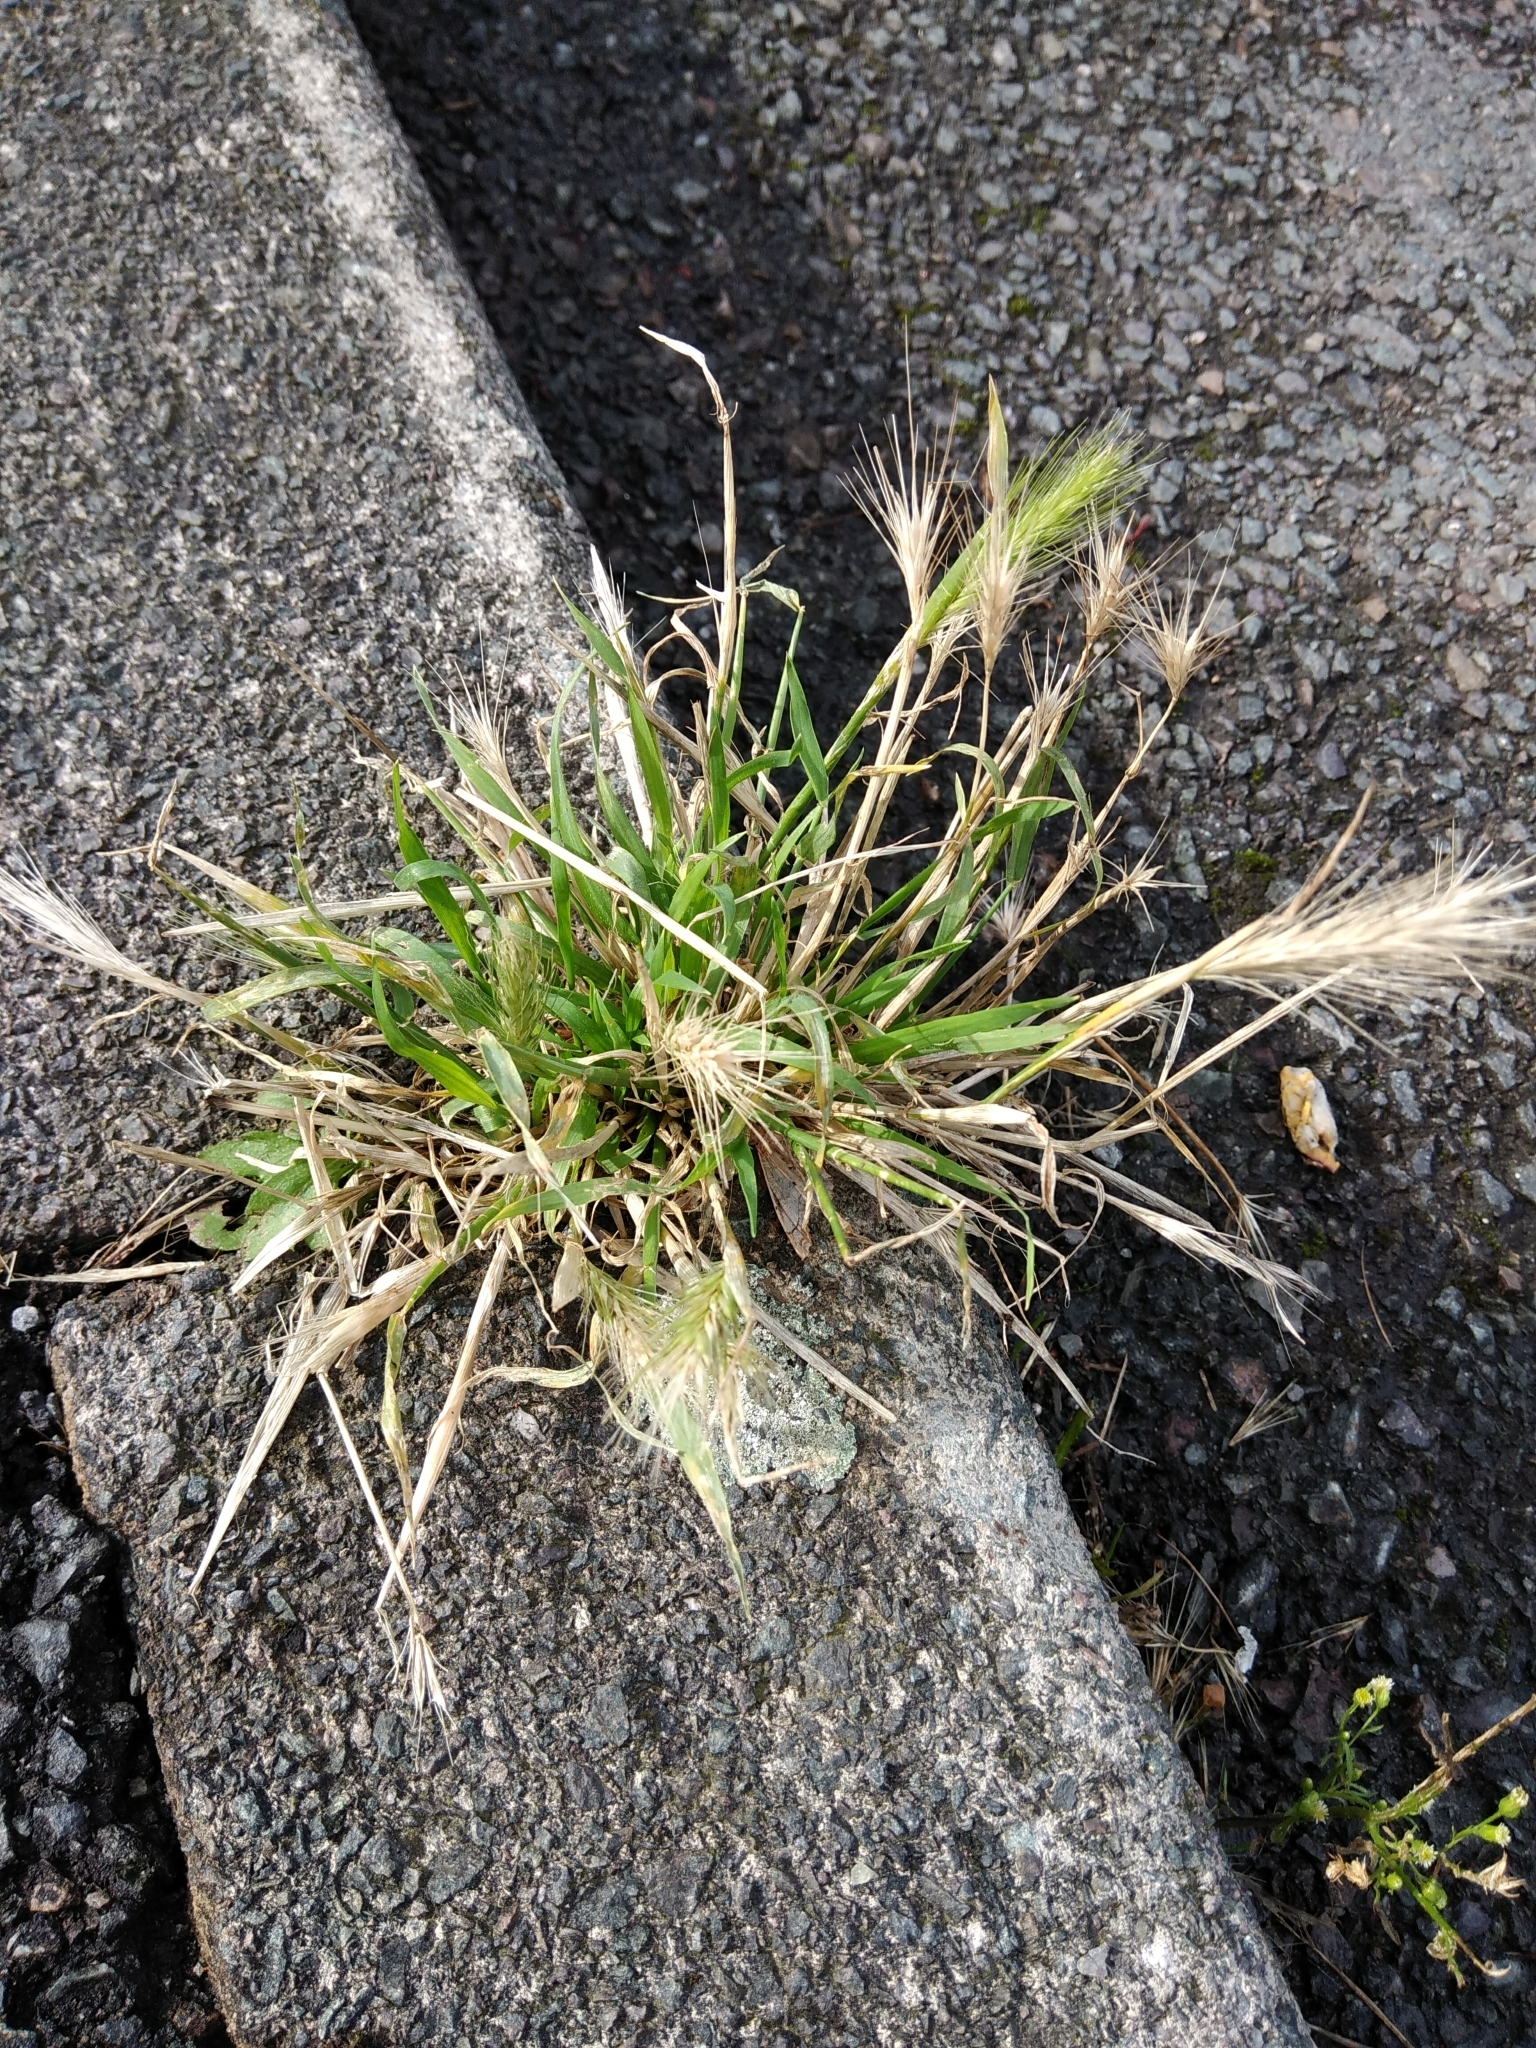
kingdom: Plantae
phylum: Tracheophyta
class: Liliopsida
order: Poales
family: Poaceae
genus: Hordeum
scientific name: Hordeum murinum
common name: Wall barley
